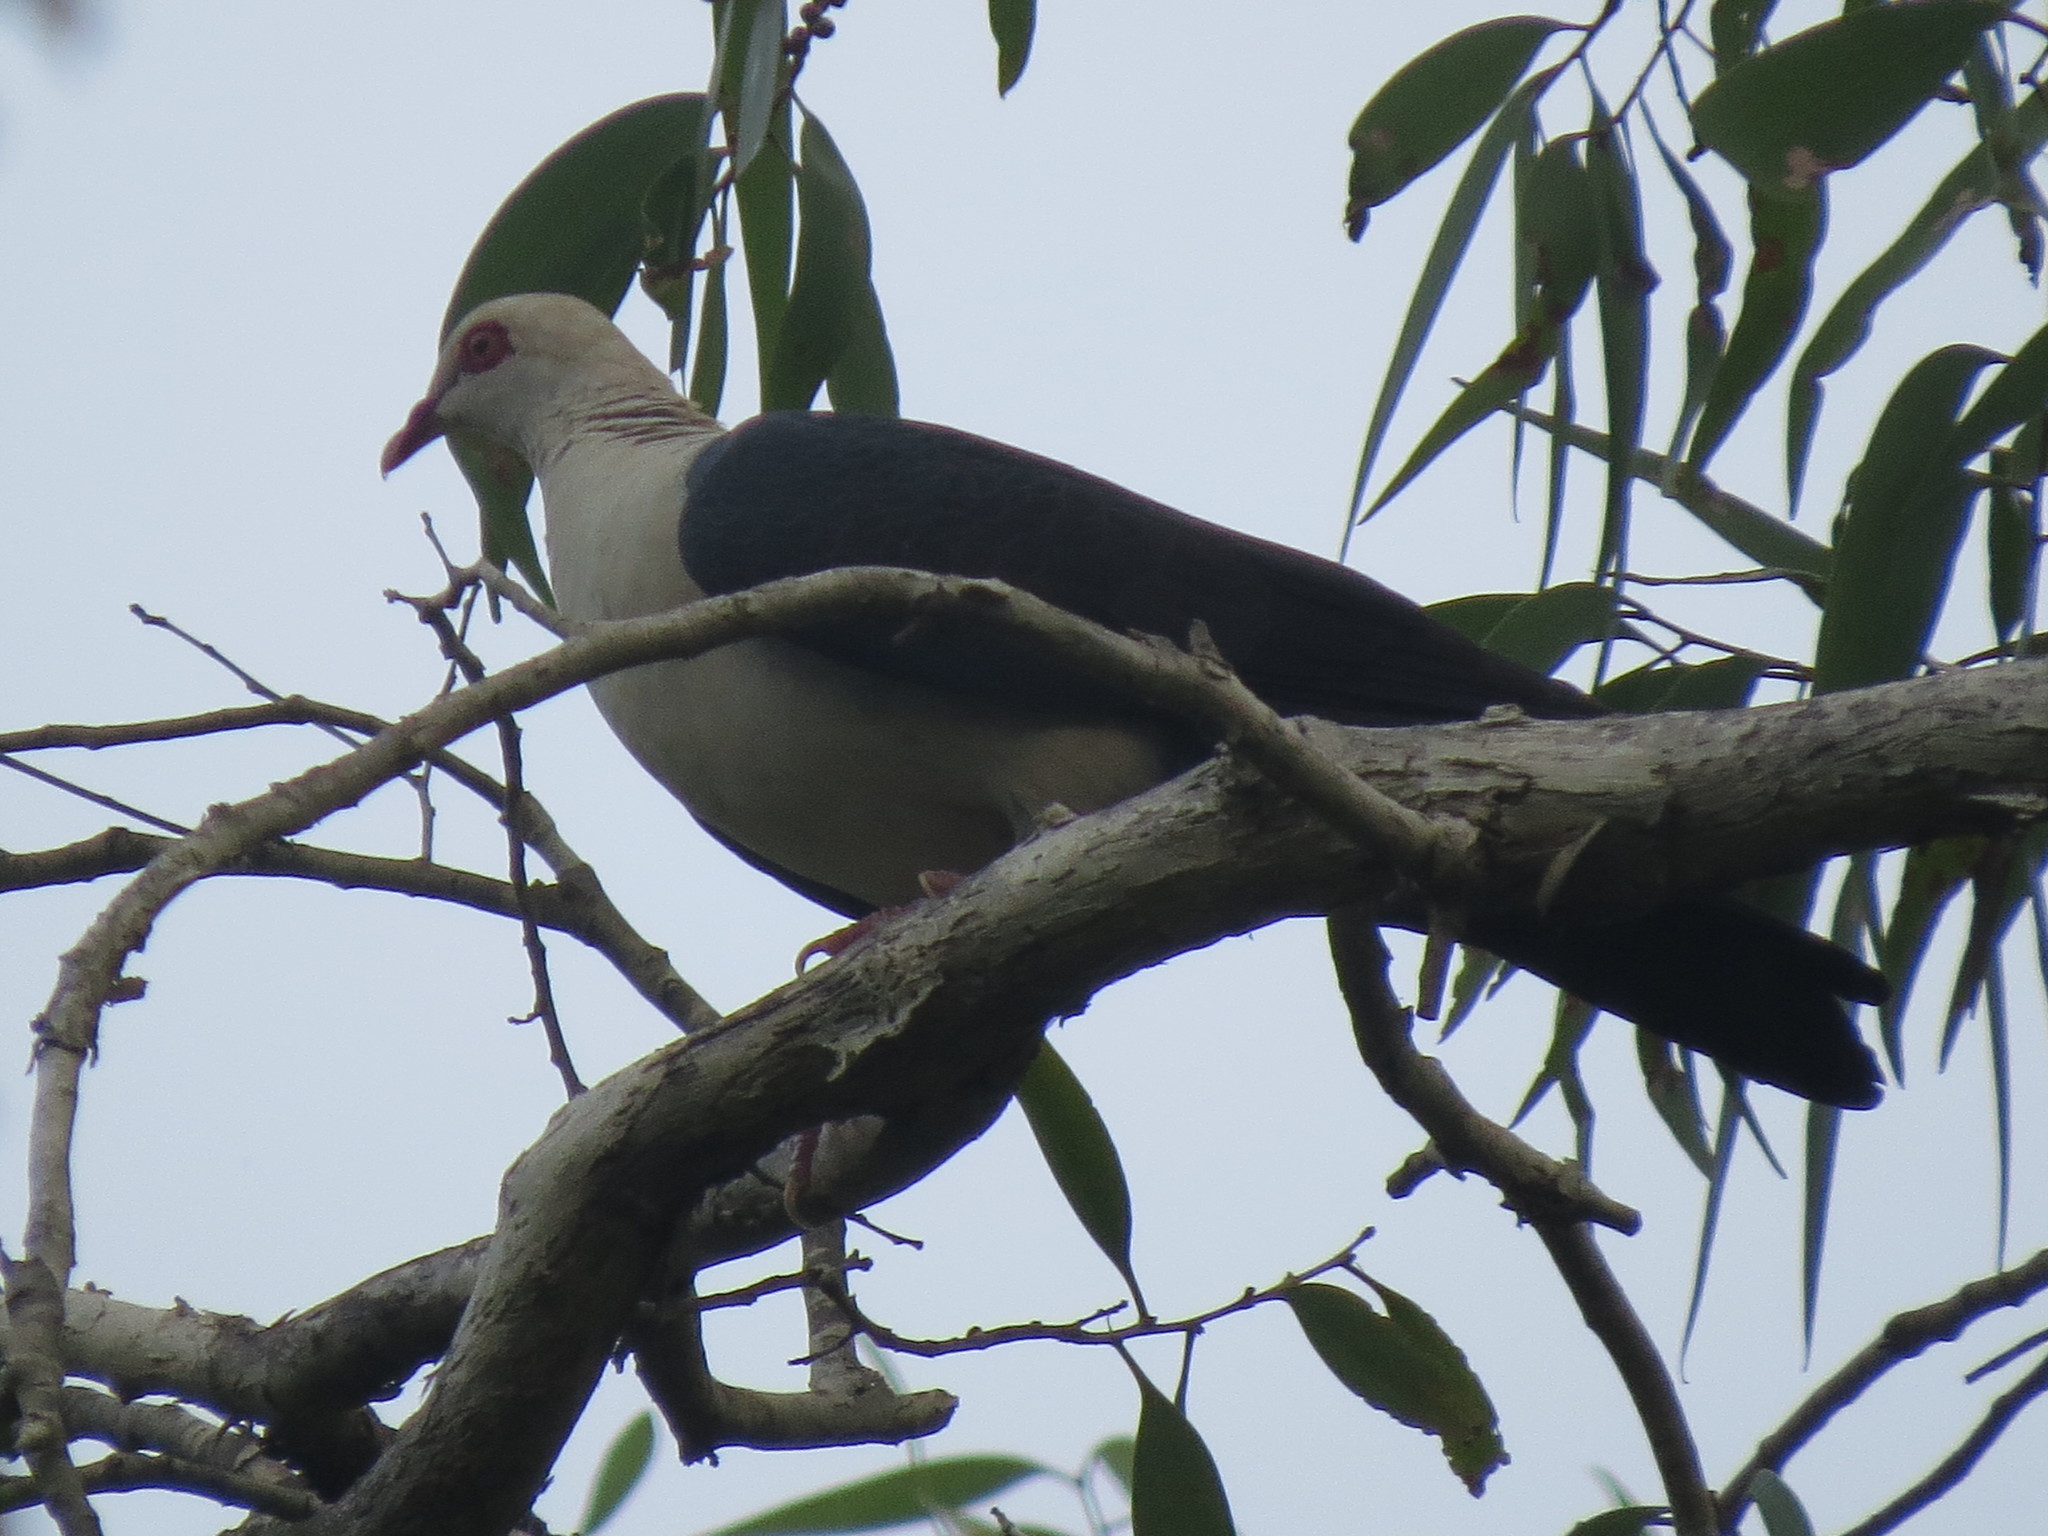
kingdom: Animalia
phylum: Chordata
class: Aves
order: Columbiformes
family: Columbidae
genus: Columba
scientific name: Columba leucomela
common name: White-headed pigeon
